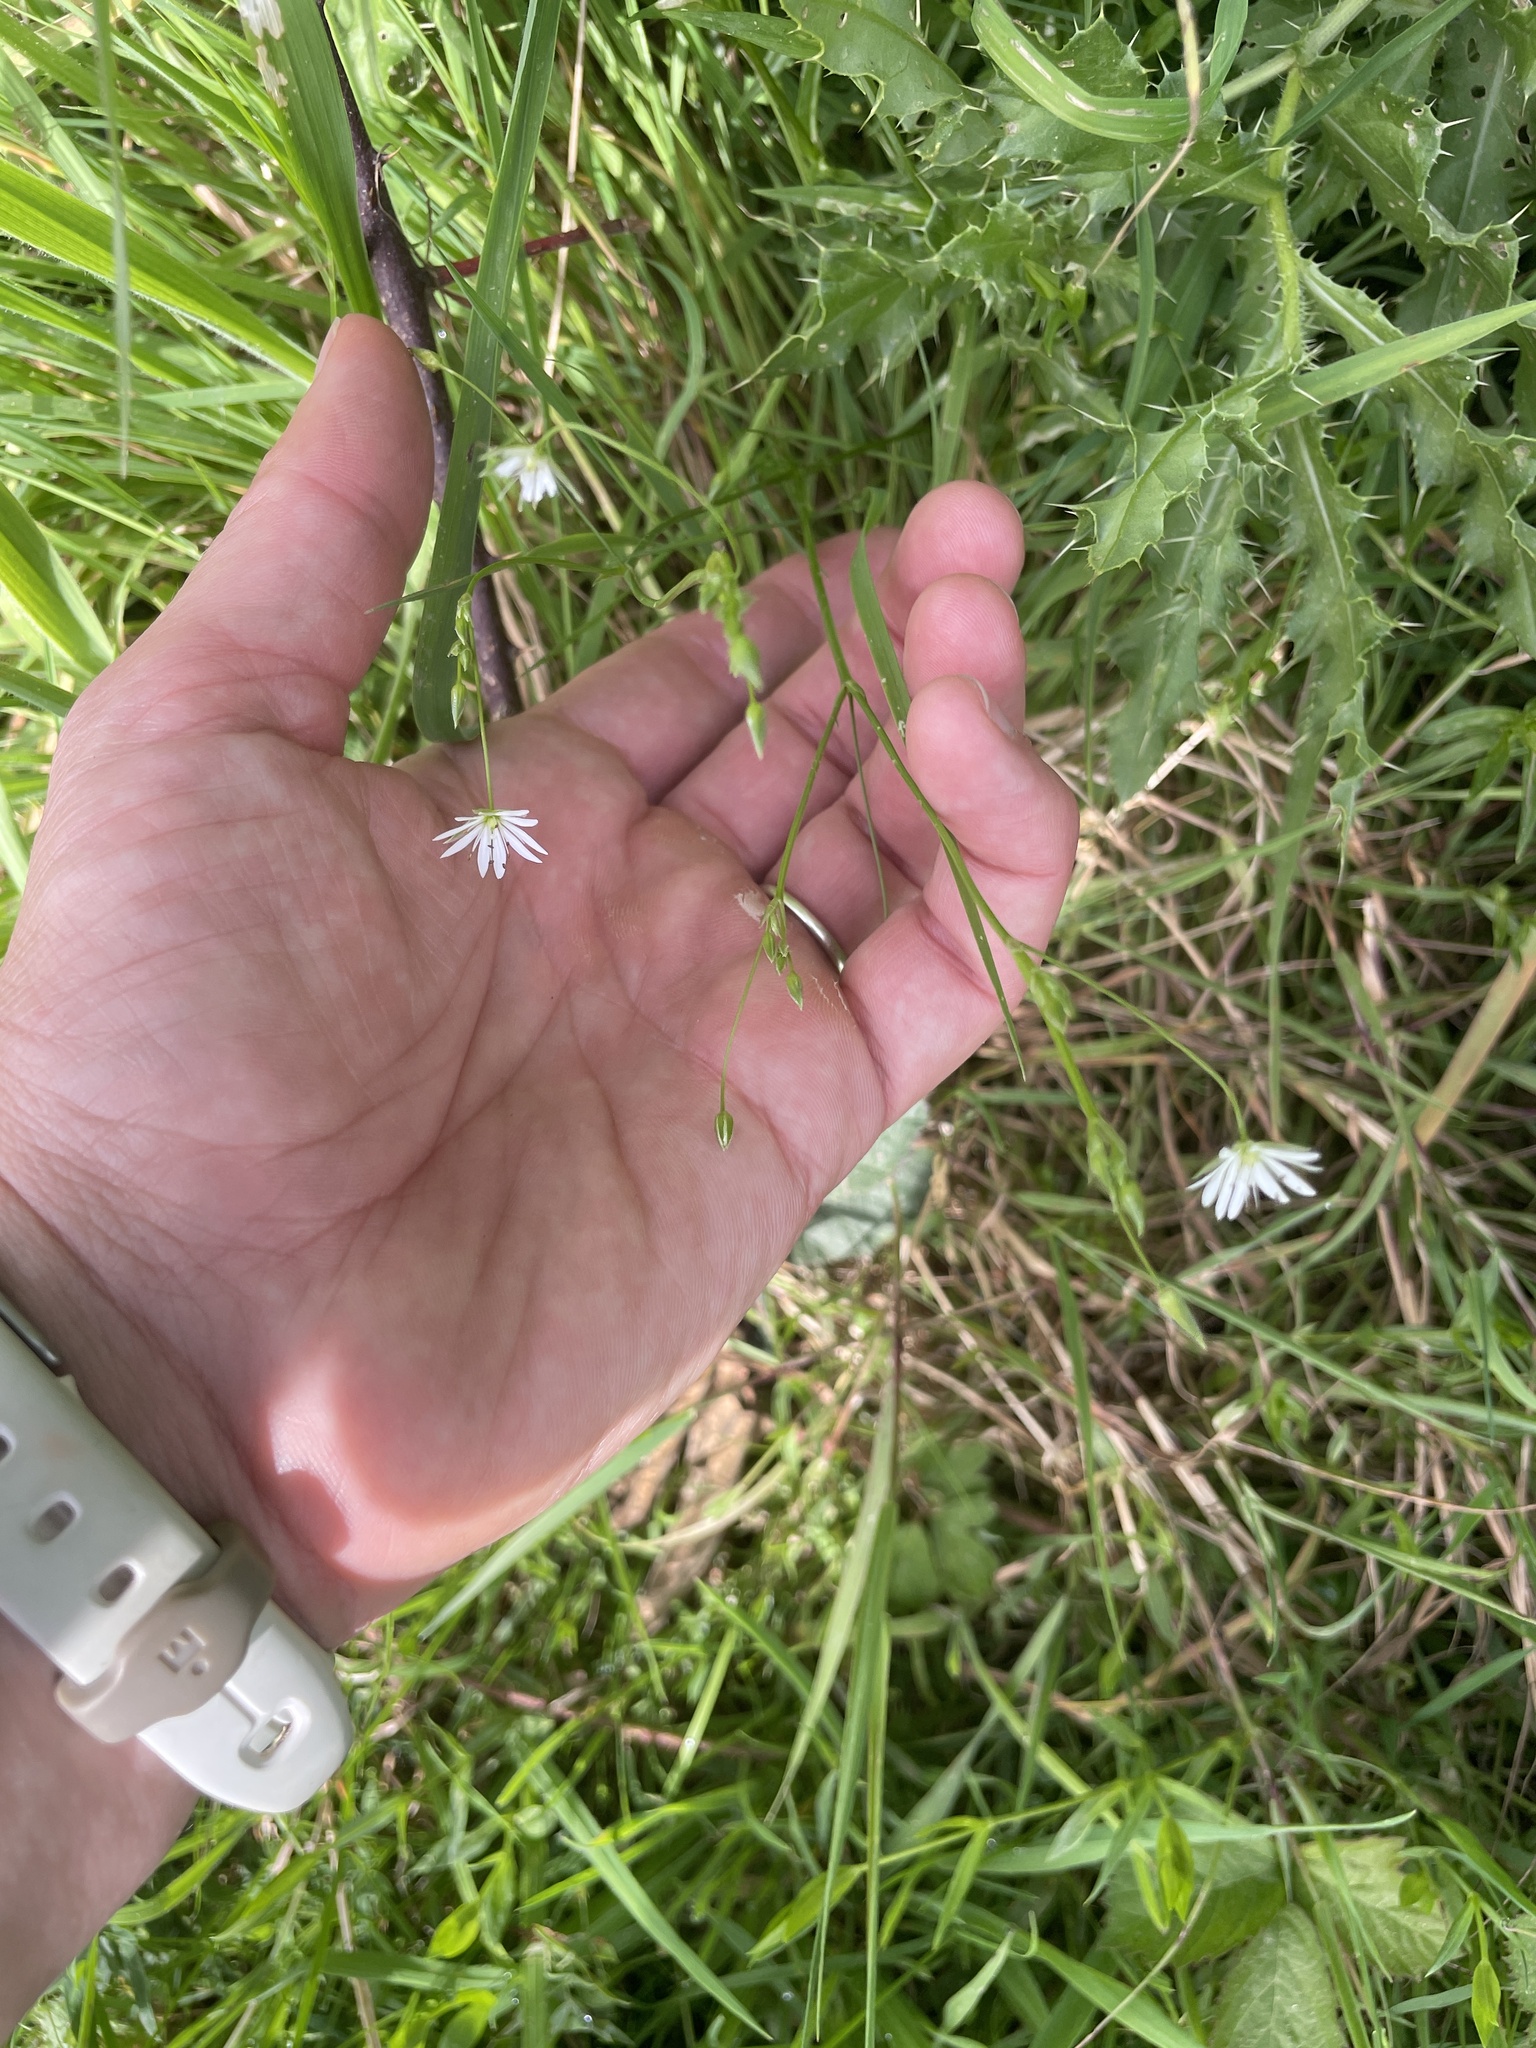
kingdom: Plantae
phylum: Tracheophyta
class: Magnoliopsida
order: Caryophyllales
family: Caryophyllaceae
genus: Stellaria
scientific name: Stellaria graminea
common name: Grass-like starwort
